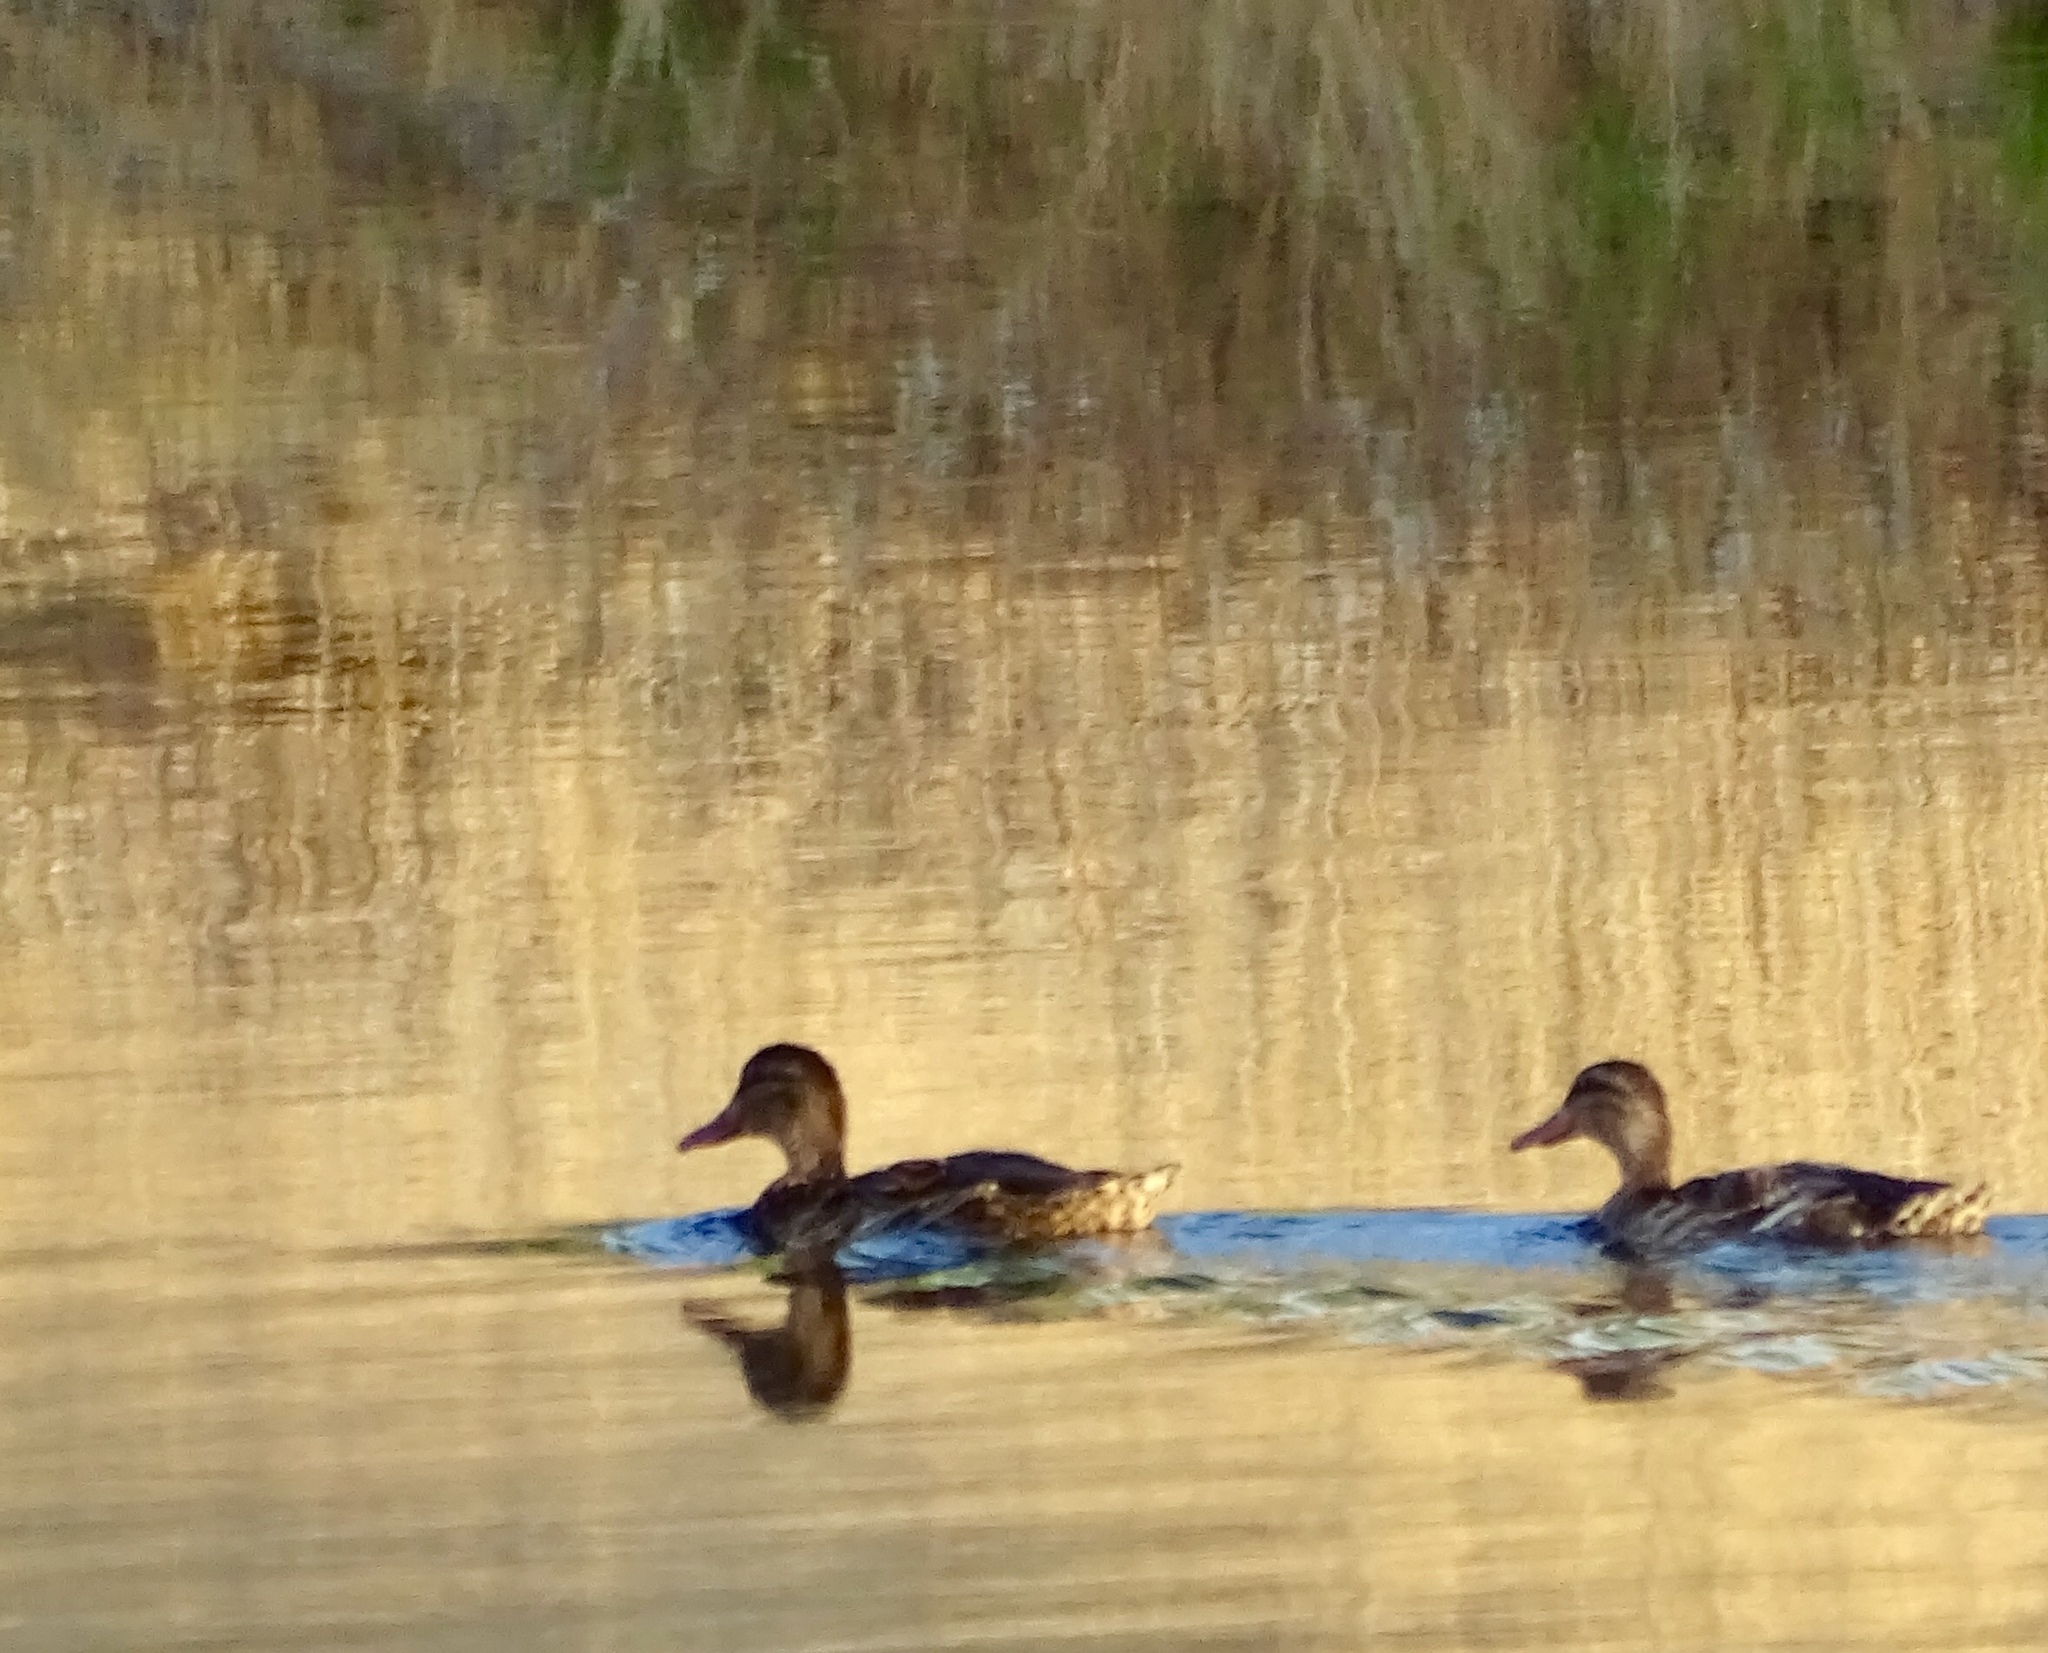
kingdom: Animalia
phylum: Chordata
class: Aves
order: Anseriformes
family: Anatidae
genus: Anas
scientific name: Anas platyrhynchos
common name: Mallard
